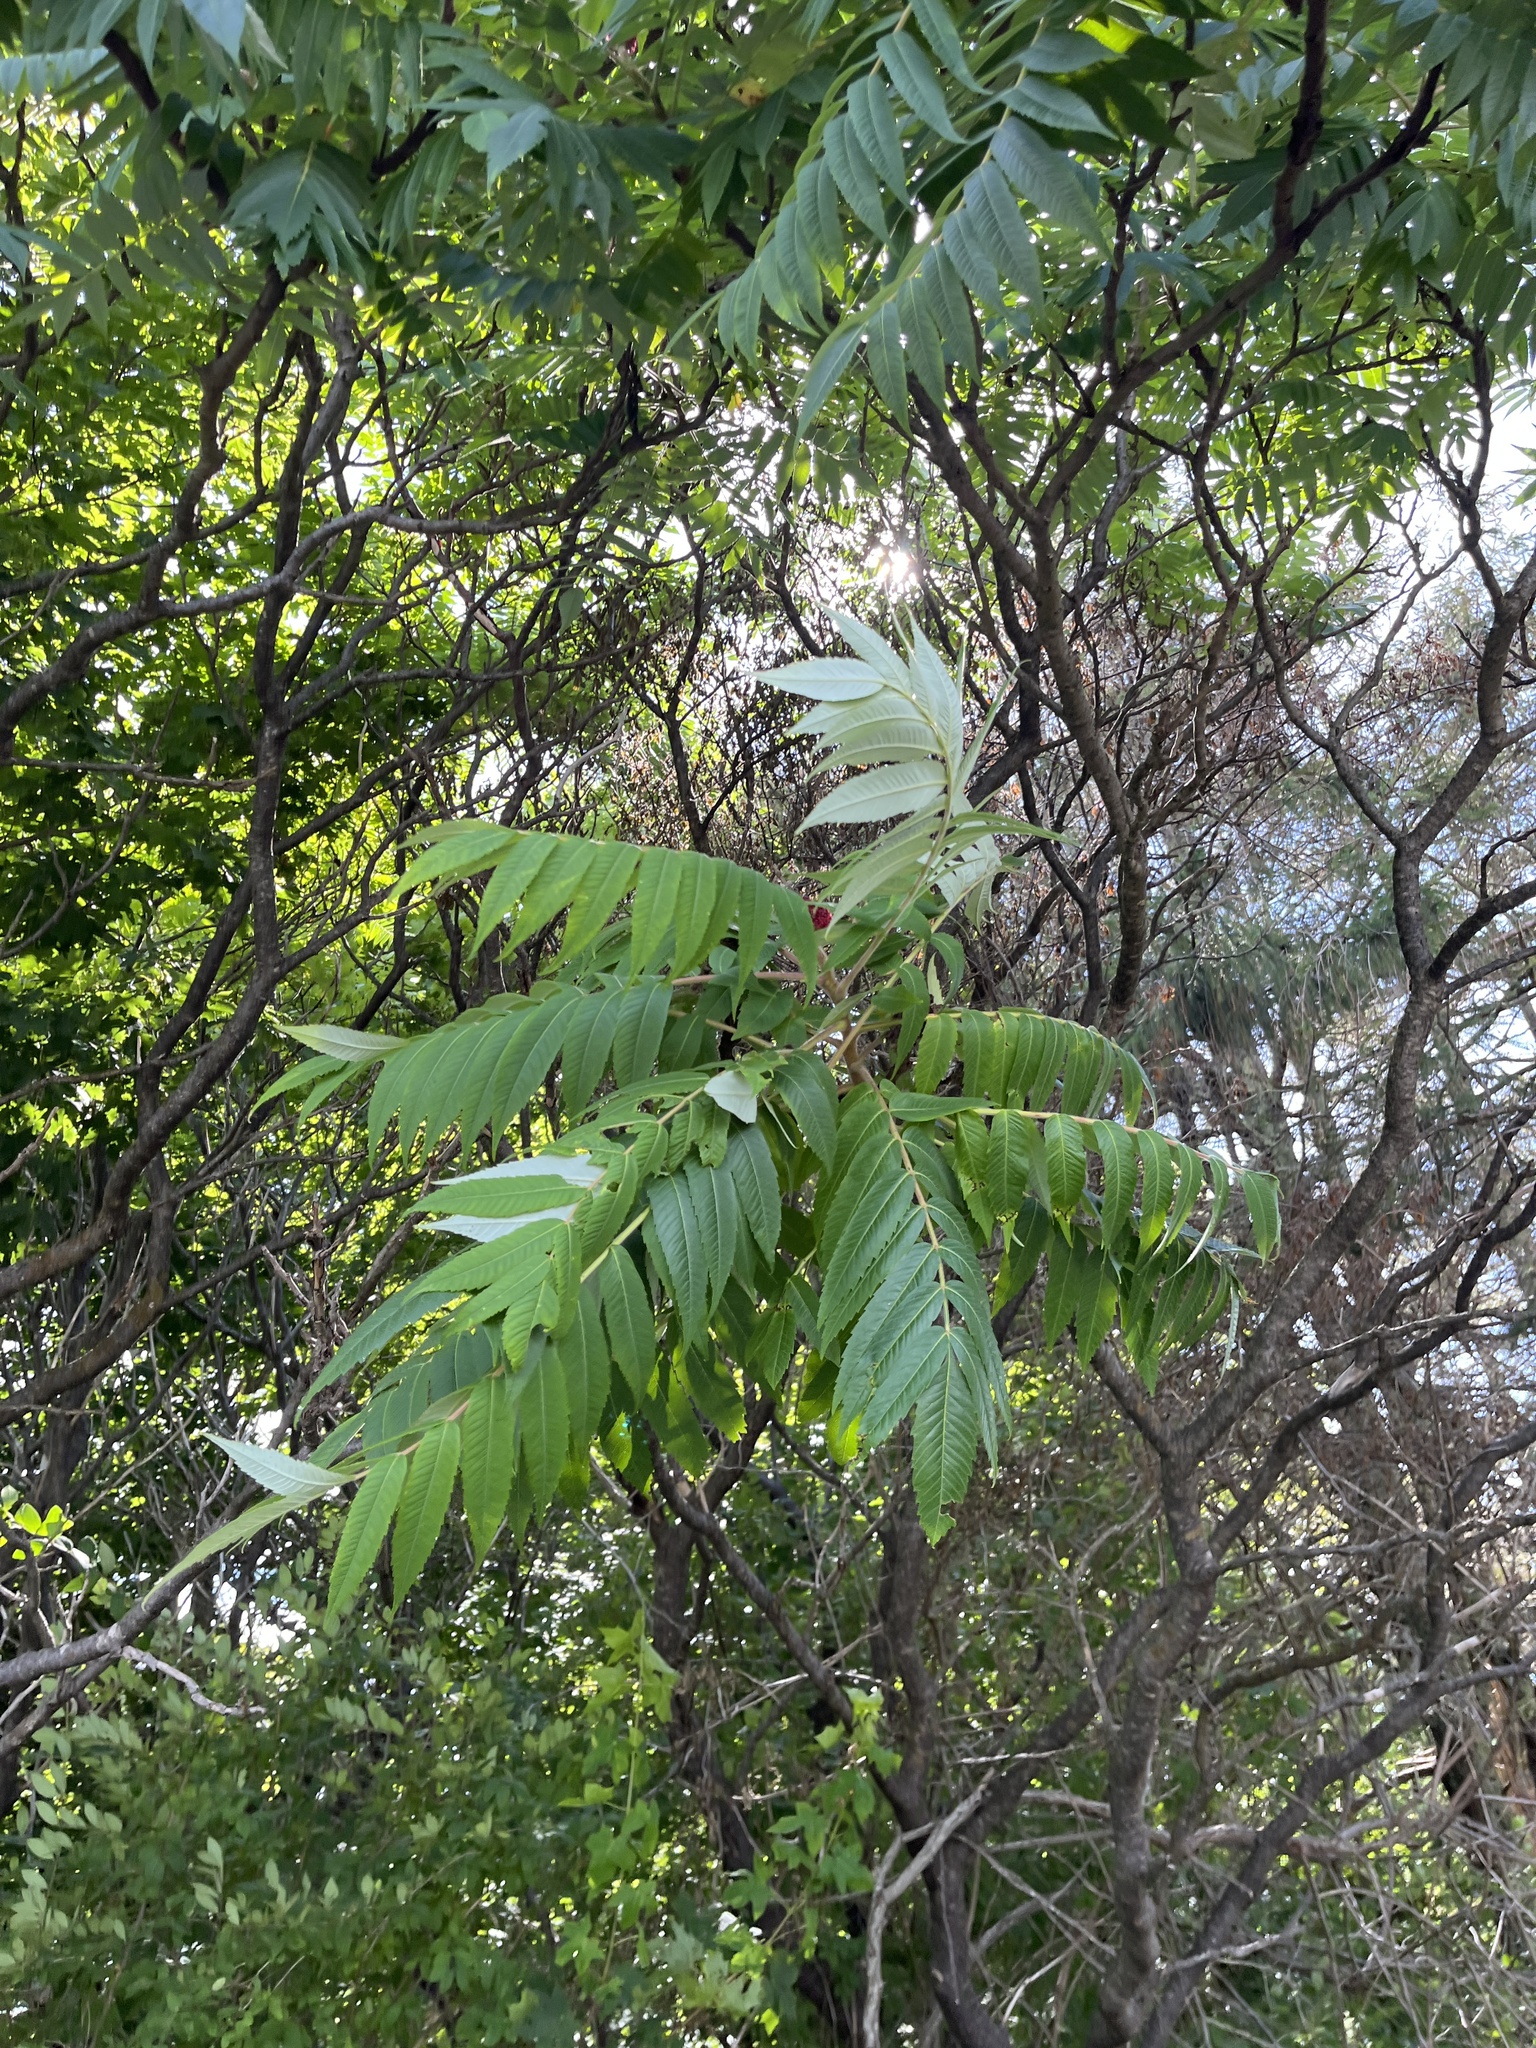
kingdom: Plantae
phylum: Tracheophyta
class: Magnoliopsida
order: Sapindales
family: Anacardiaceae
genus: Rhus
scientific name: Rhus typhina
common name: Staghorn sumac
